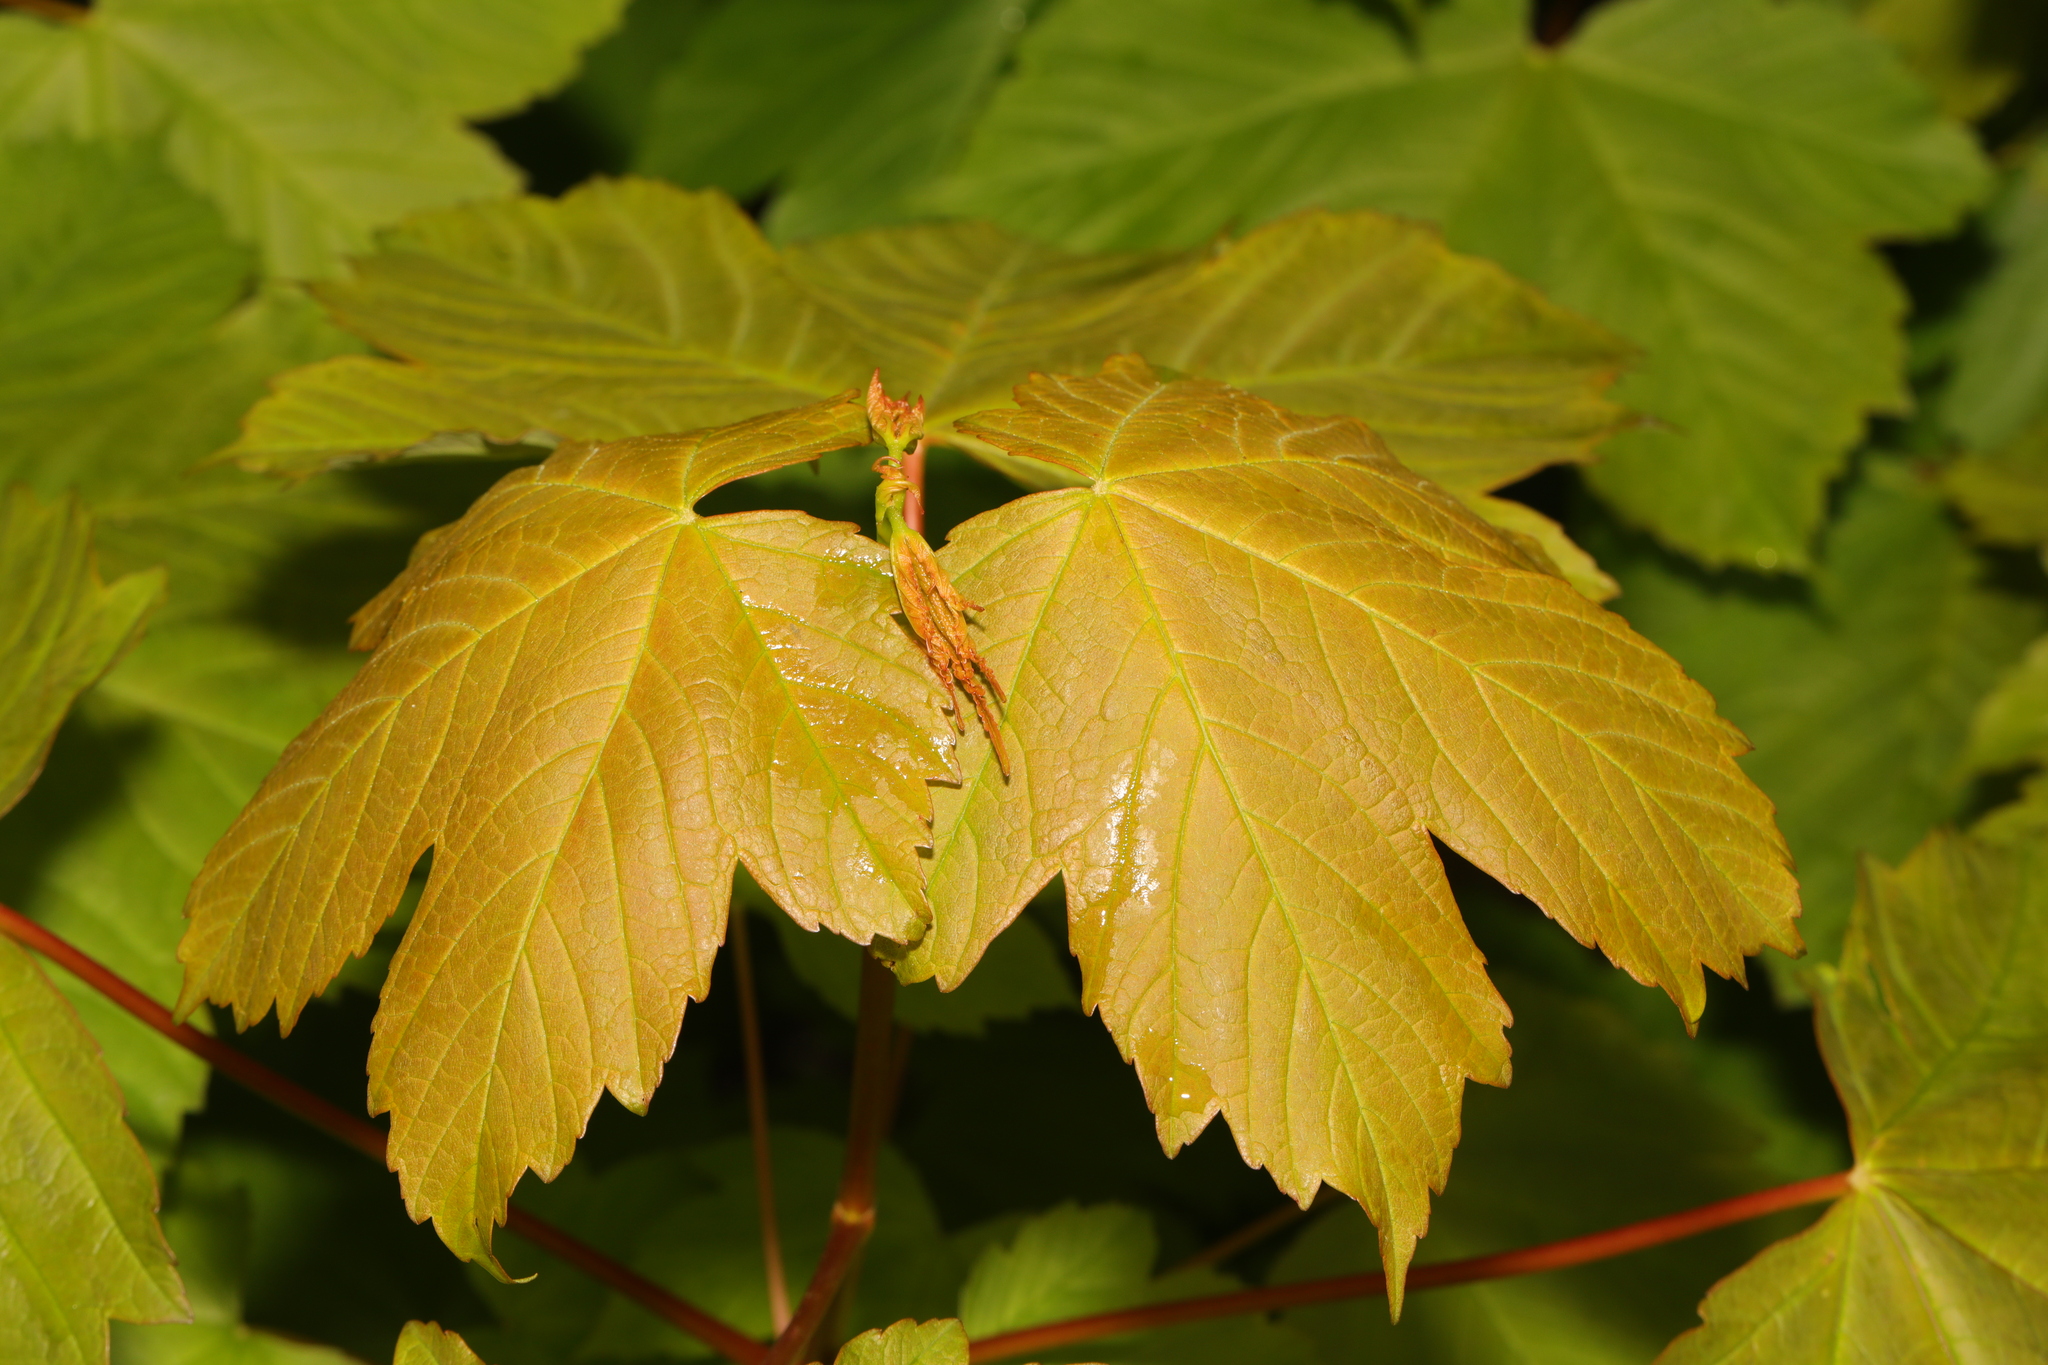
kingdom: Plantae
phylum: Tracheophyta
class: Magnoliopsida
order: Sapindales
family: Sapindaceae
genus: Acer
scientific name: Acer pseudoplatanus
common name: Sycamore
